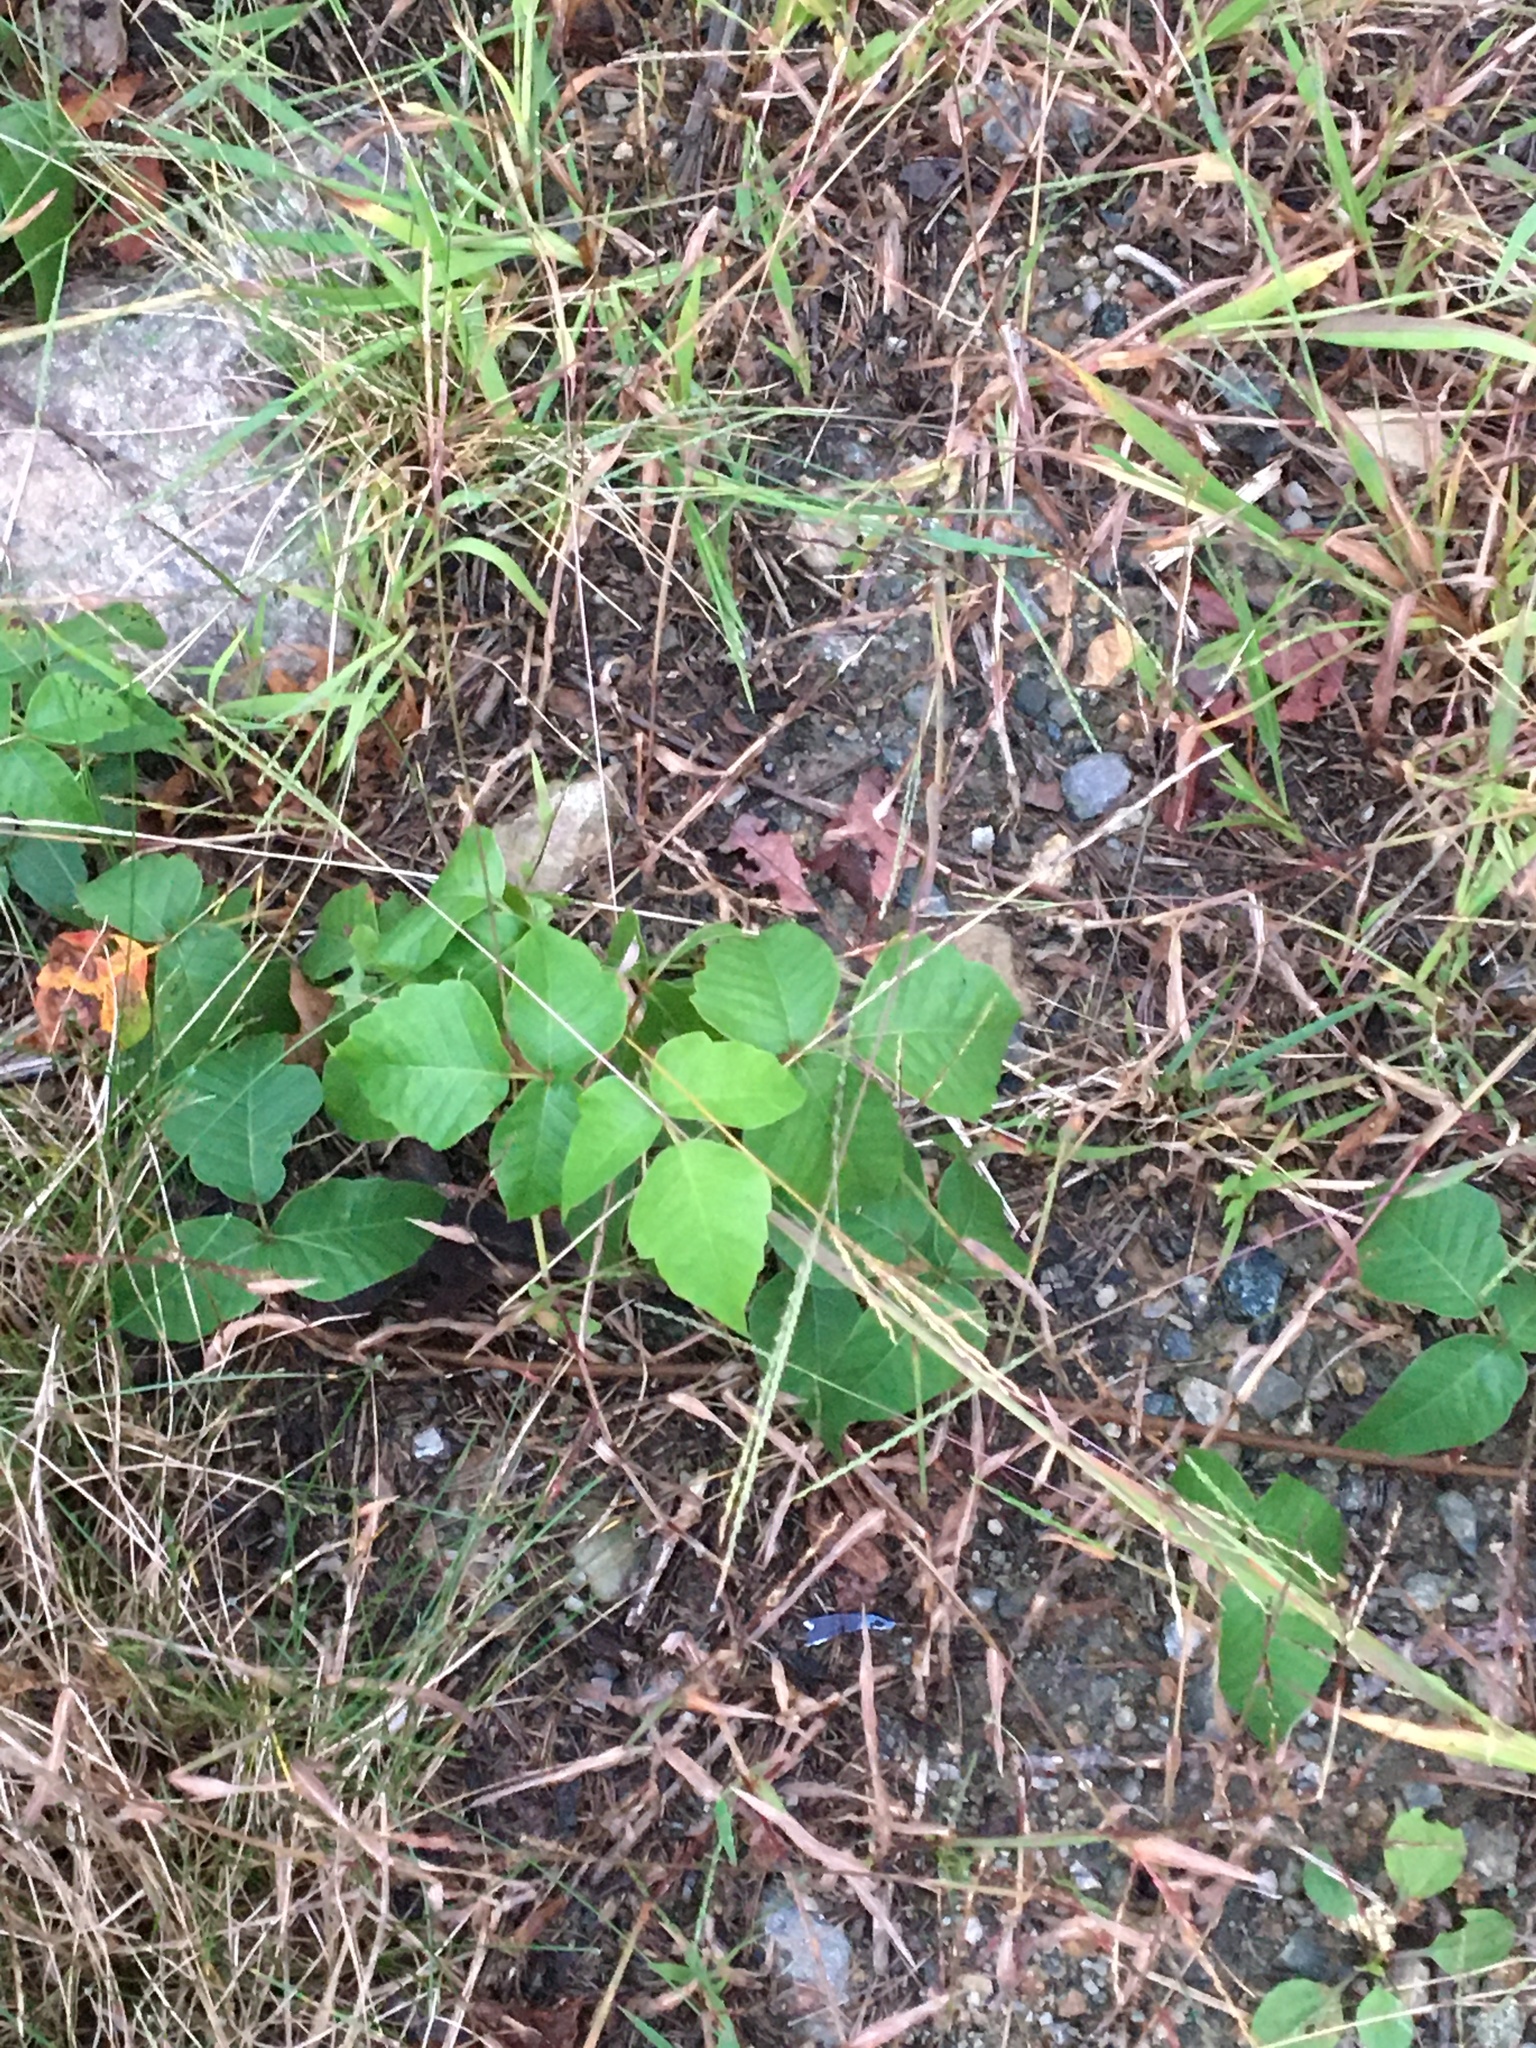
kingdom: Plantae
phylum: Tracheophyta
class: Magnoliopsida
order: Sapindales
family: Anacardiaceae
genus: Toxicodendron
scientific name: Toxicodendron radicans
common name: Poison ivy
